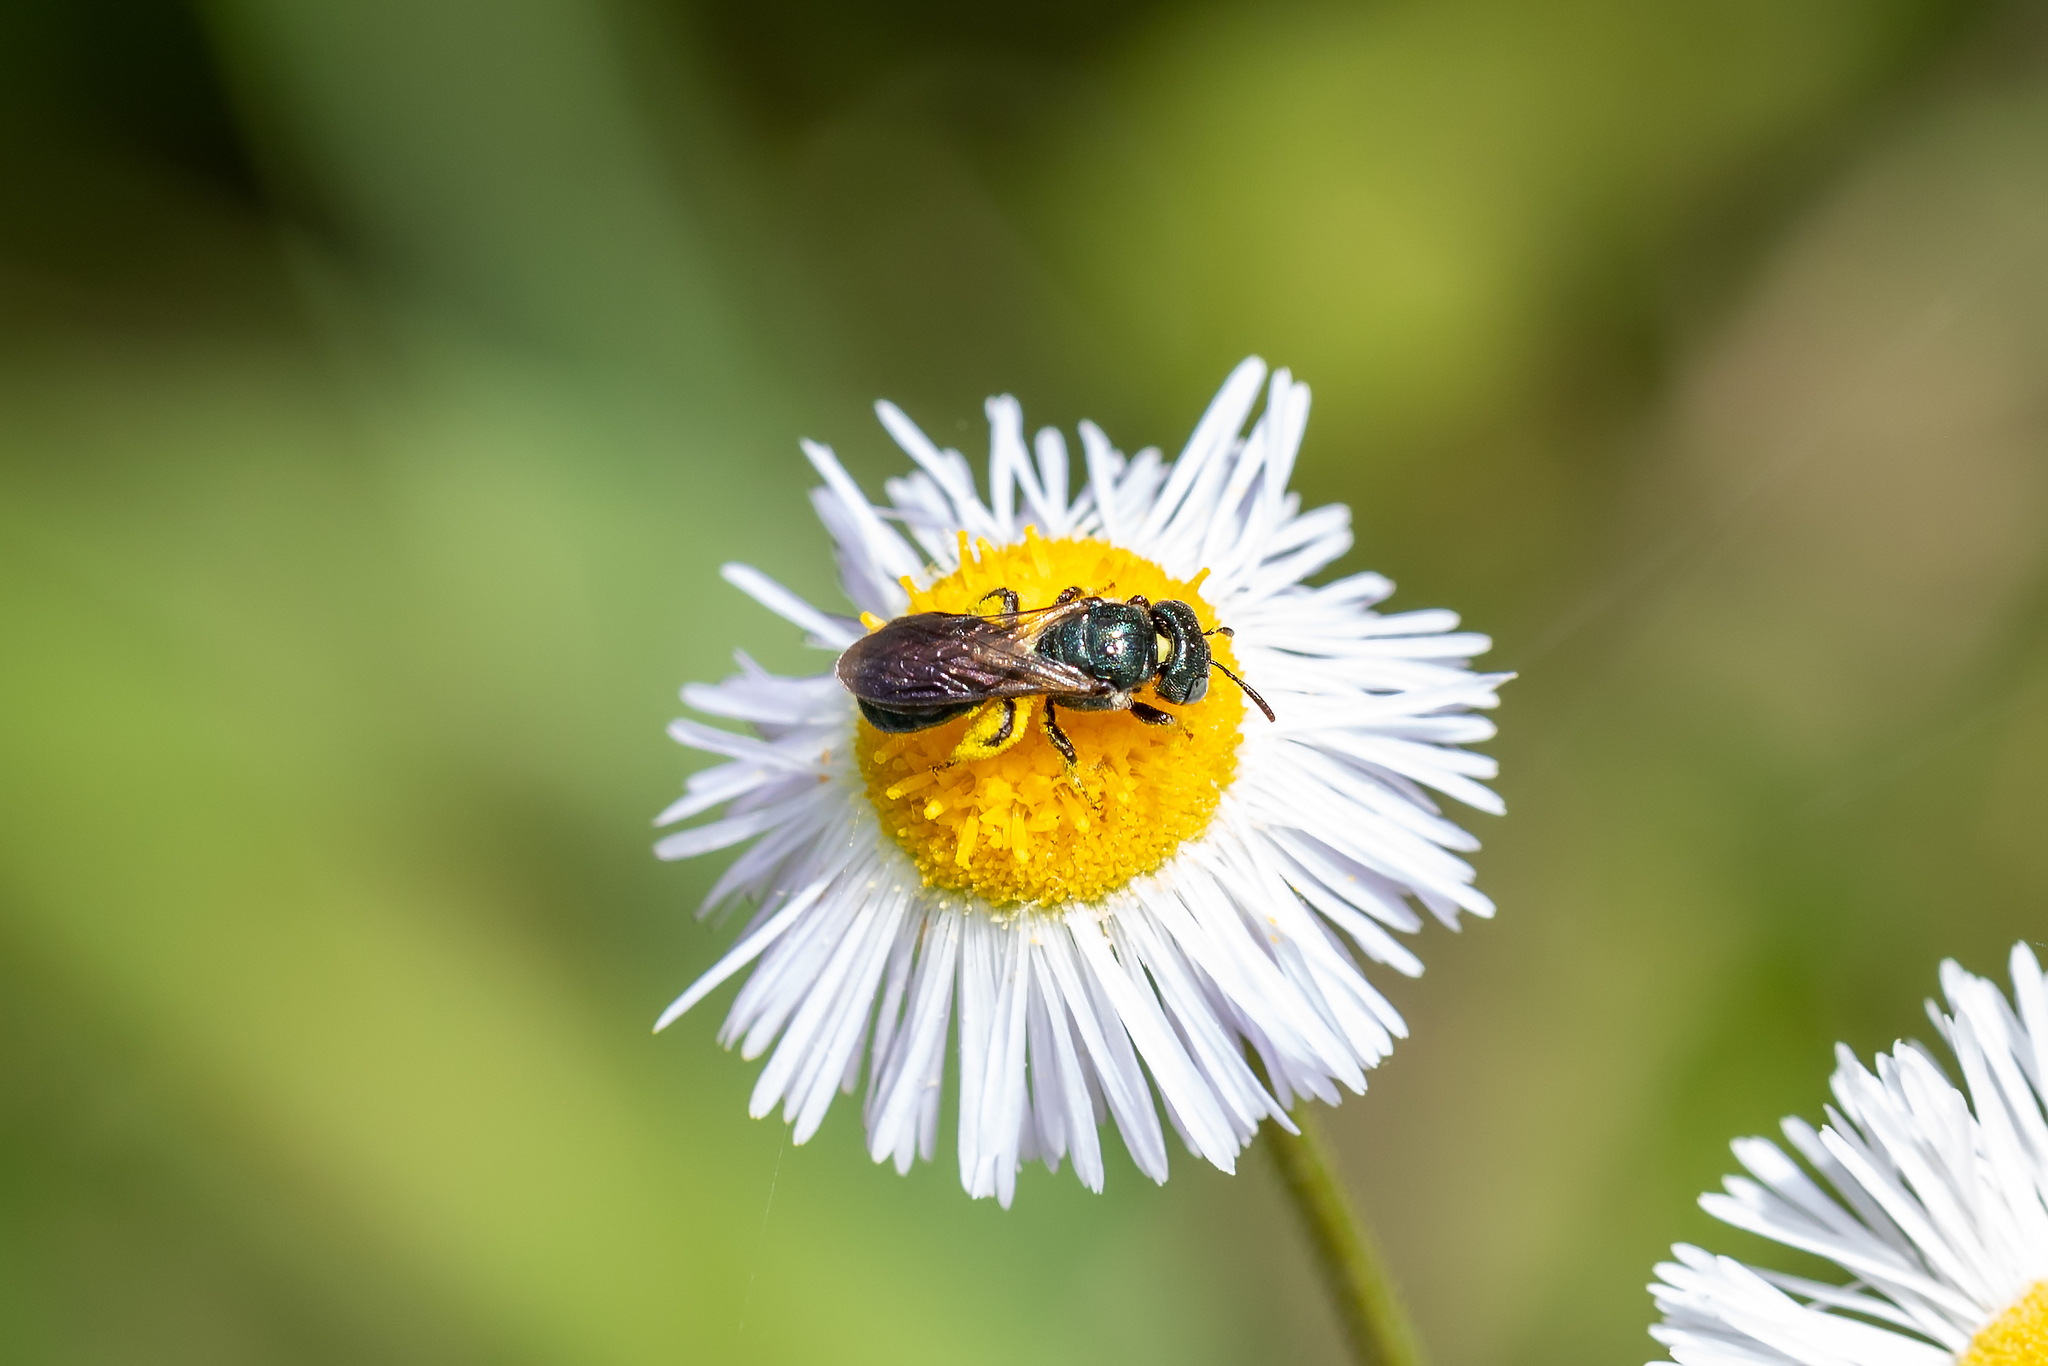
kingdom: Animalia
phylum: Arthropoda
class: Insecta
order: Hymenoptera
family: Apidae
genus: Ceratina
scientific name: Ceratina floridana
